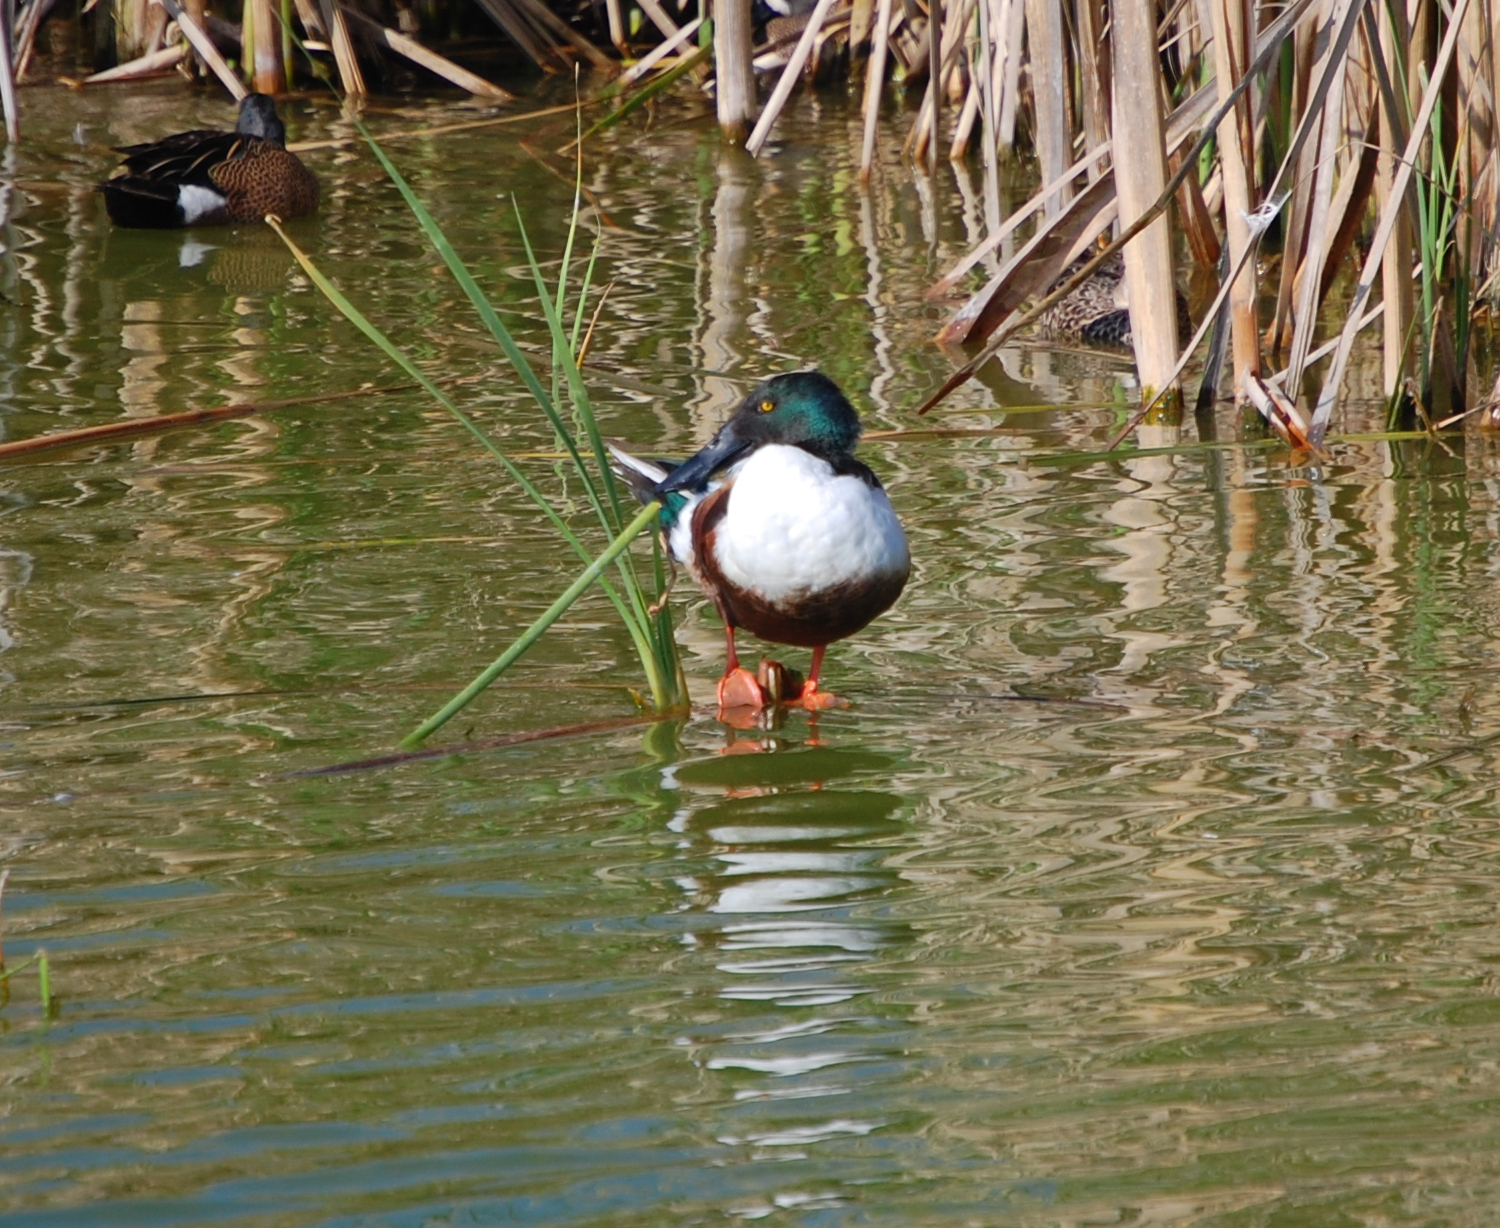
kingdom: Animalia
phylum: Chordata
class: Aves
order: Anseriformes
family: Anatidae
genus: Spatula
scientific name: Spatula discors
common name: Blue-winged teal
